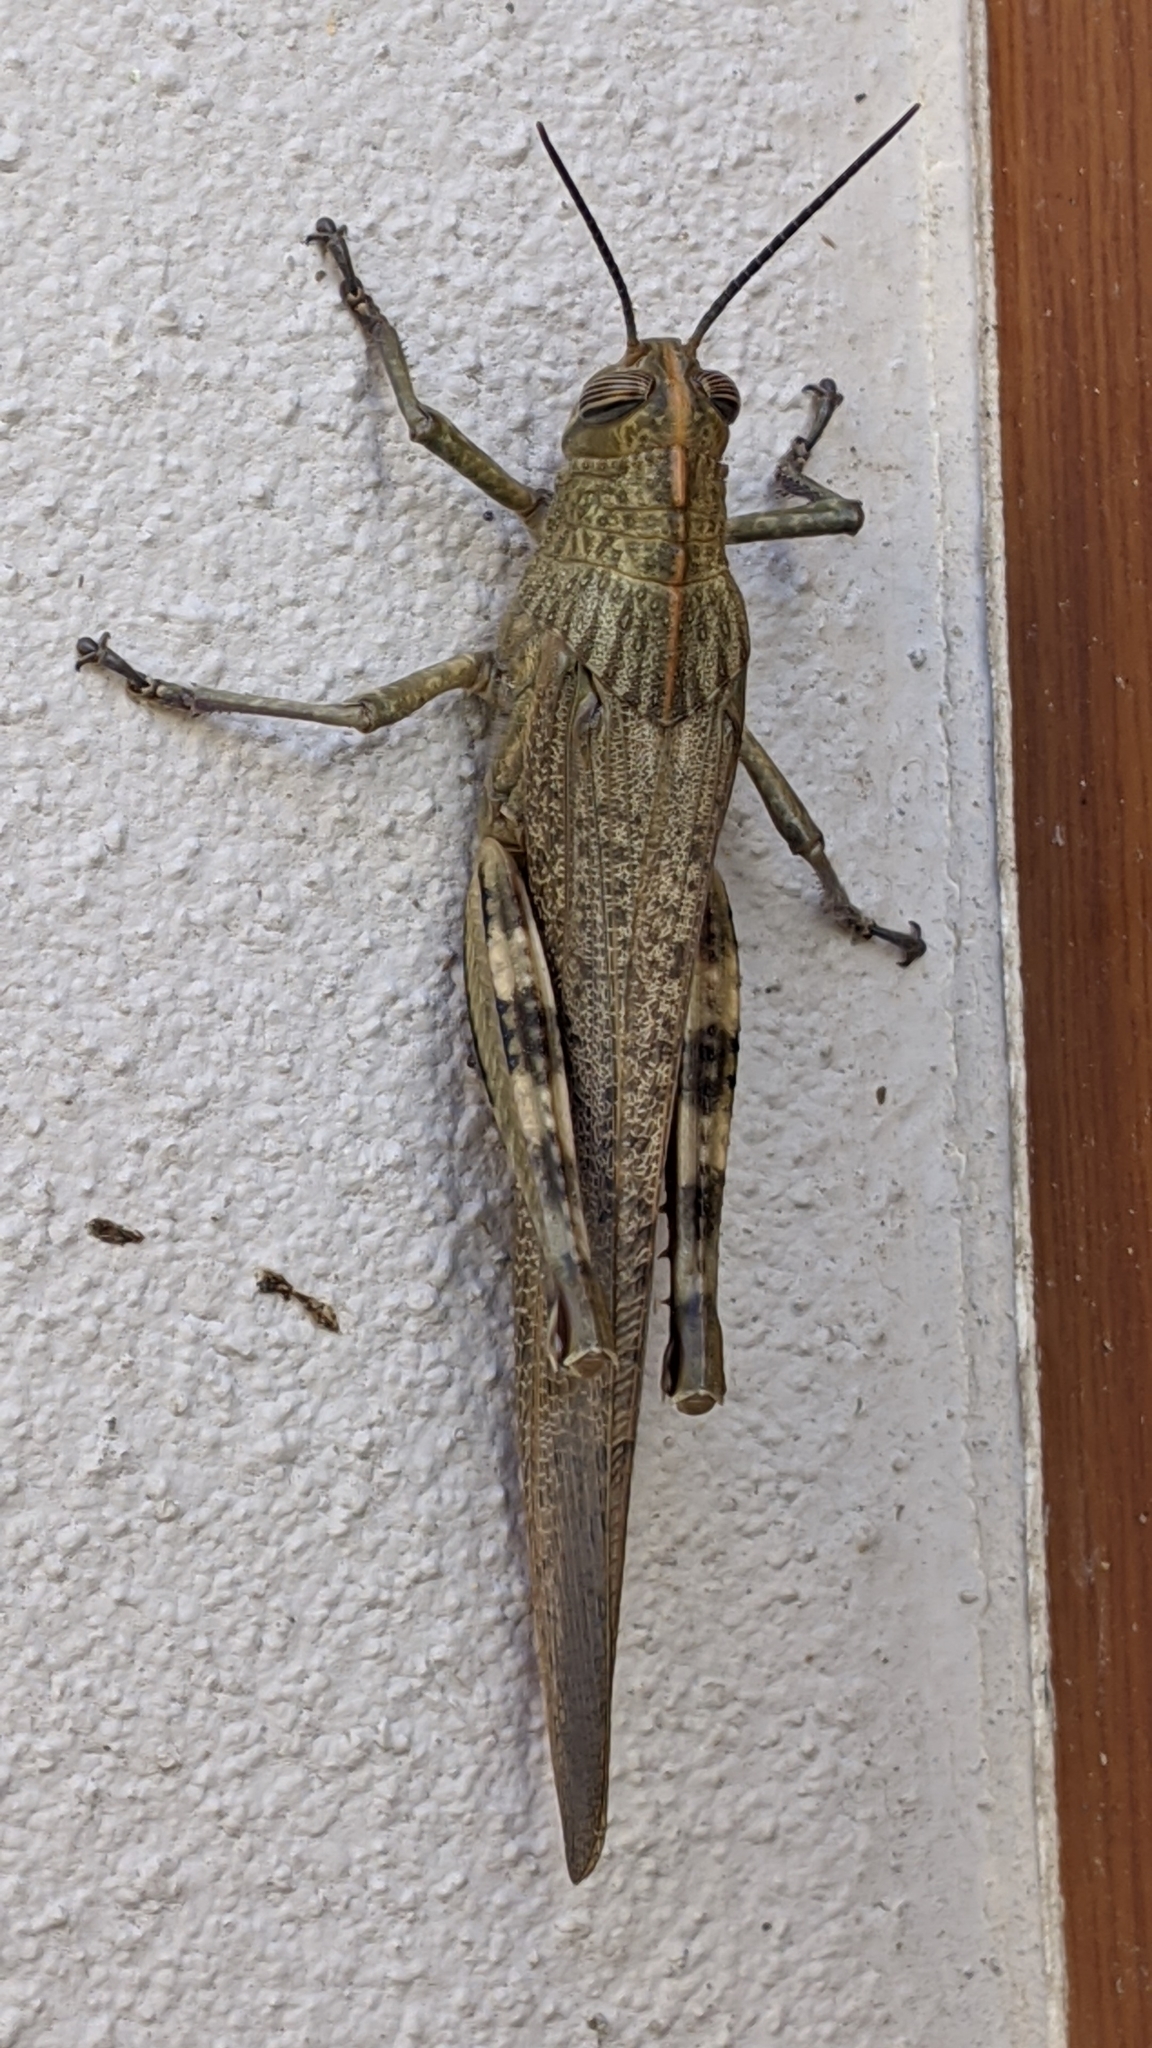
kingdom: Animalia
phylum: Arthropoda
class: Insecta
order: Orthoptera
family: Acrididae
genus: Anacridium
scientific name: Anacridium aegyptium
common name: Egyptian grasshopper
